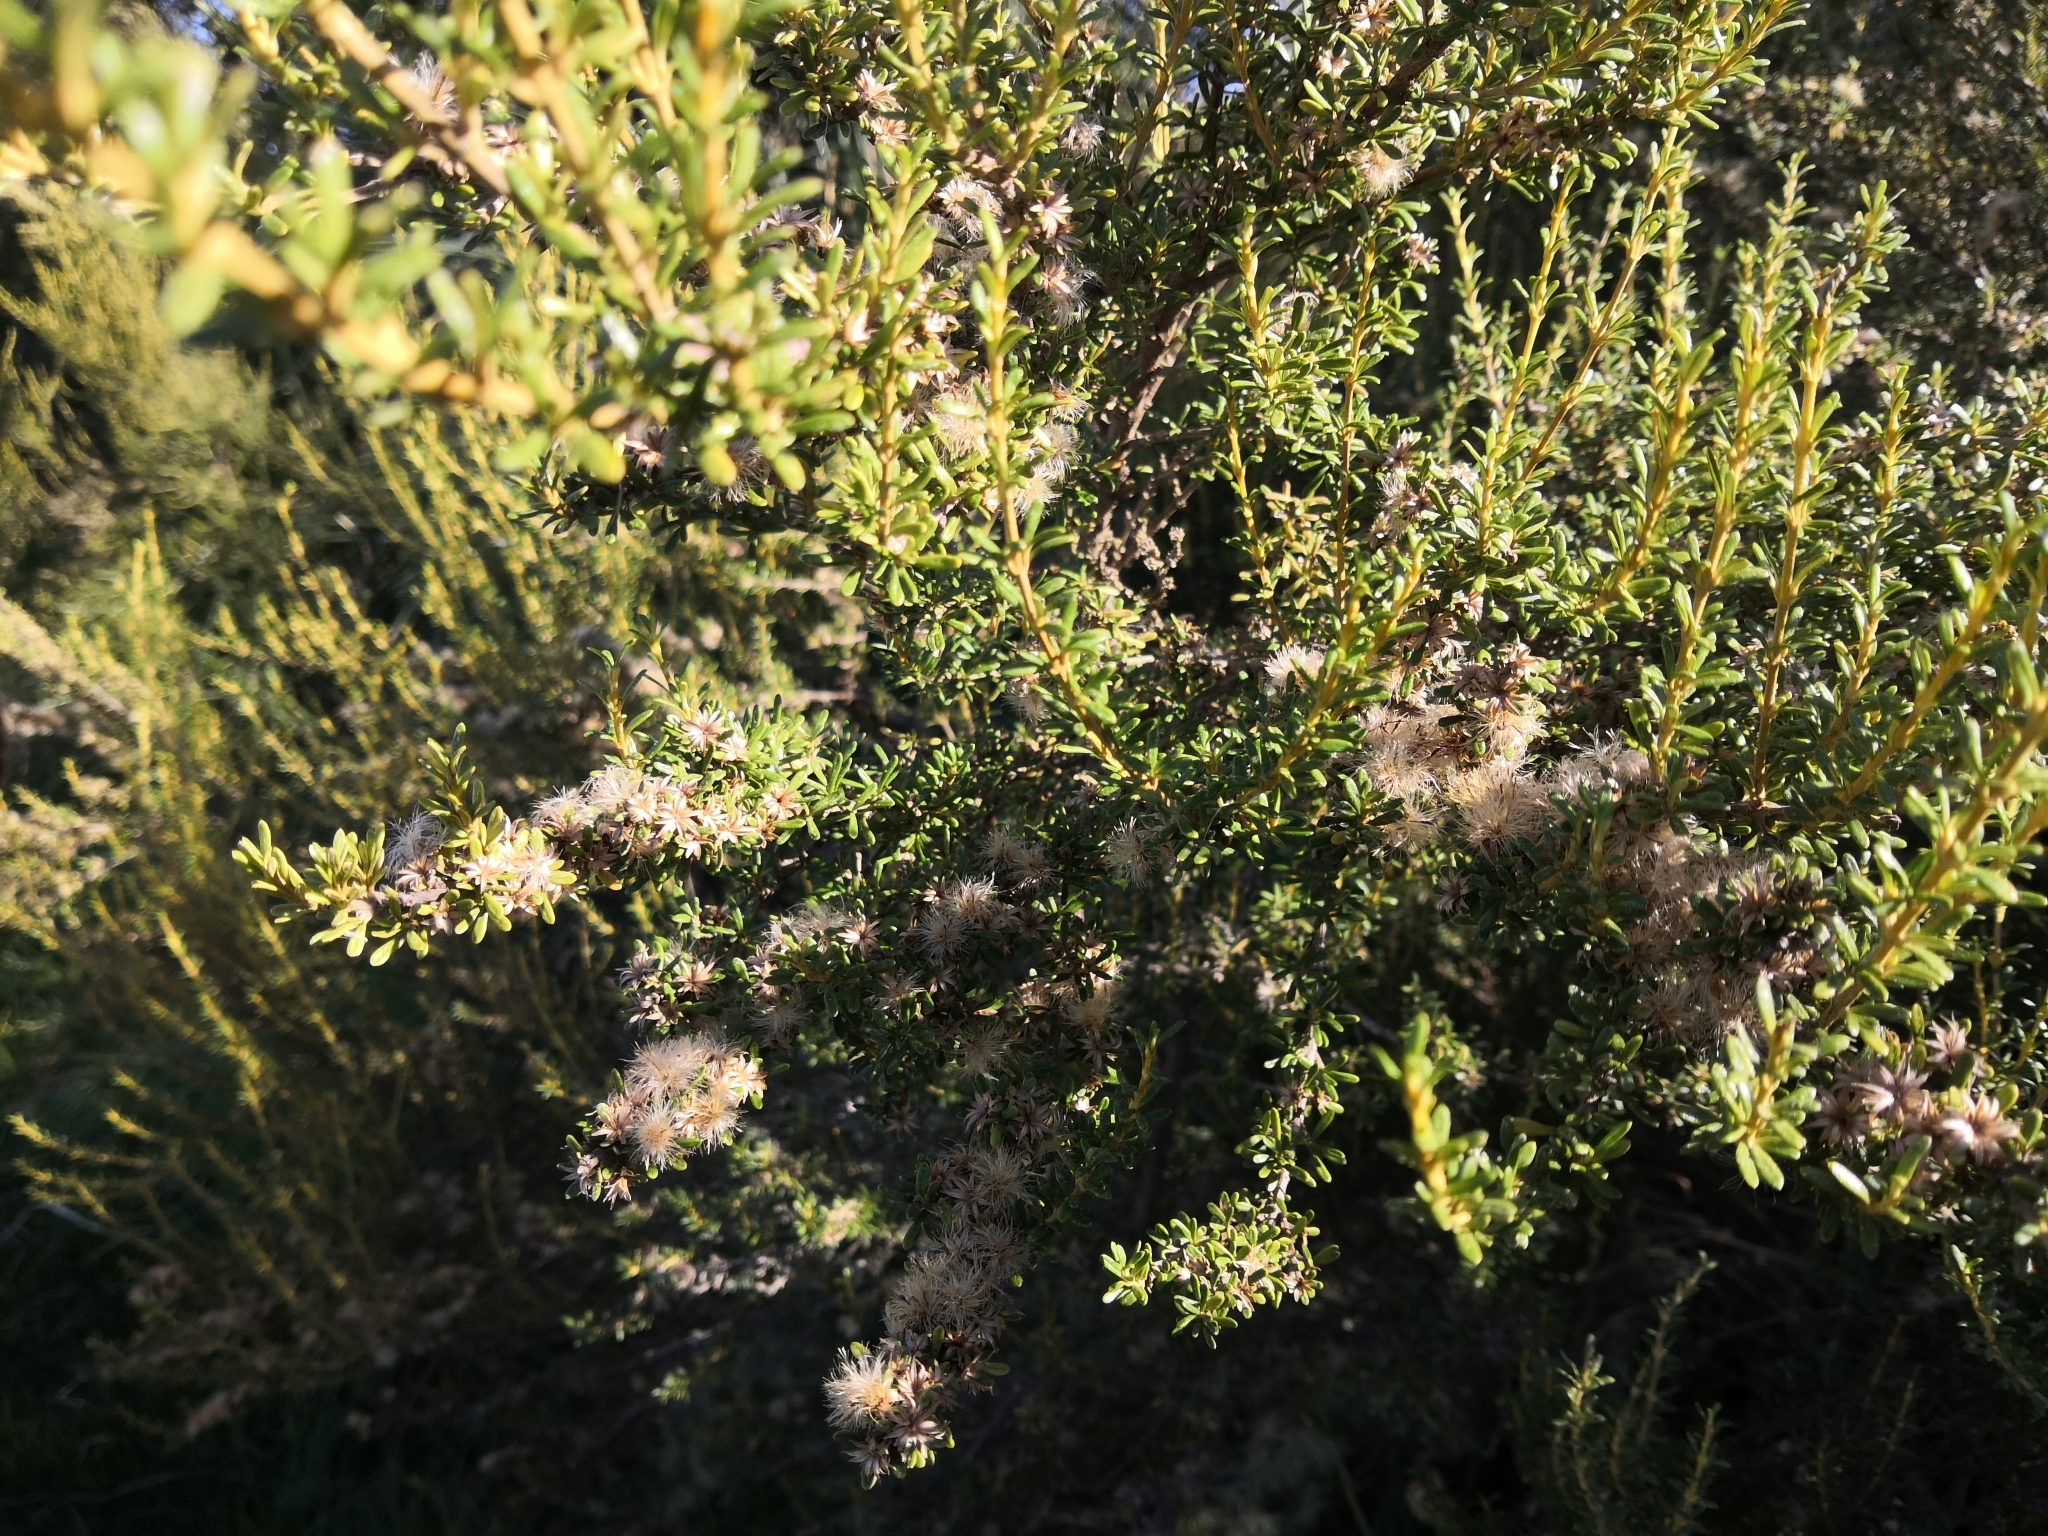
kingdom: Plantae
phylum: Tracheophyta
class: Magnoliopsida
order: Asterales
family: Asteraceae
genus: Olearia
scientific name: Olearia solandri
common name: Coastal daisybush
